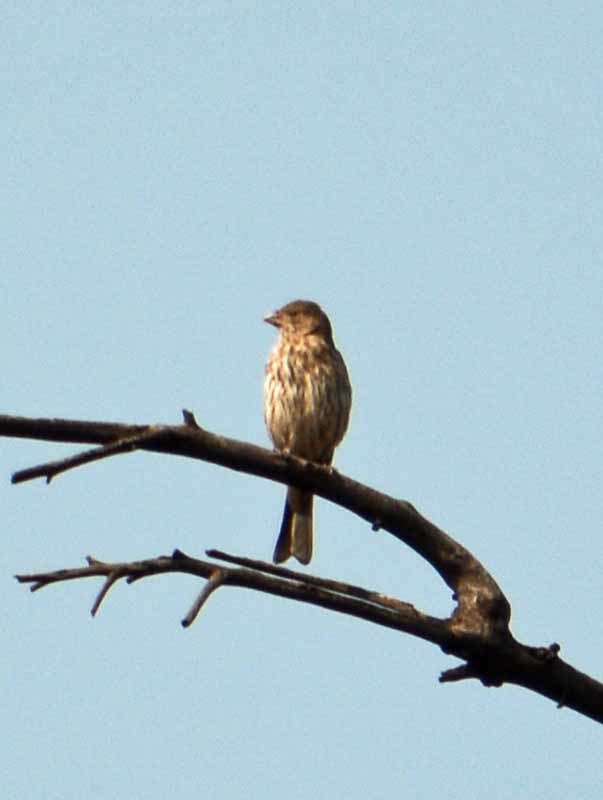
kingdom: Animalia
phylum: Chordata
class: Aves
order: Passeriformes
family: Fringillidae
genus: Haemorhous
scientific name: Haemorhous mexicanus
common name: House finch
